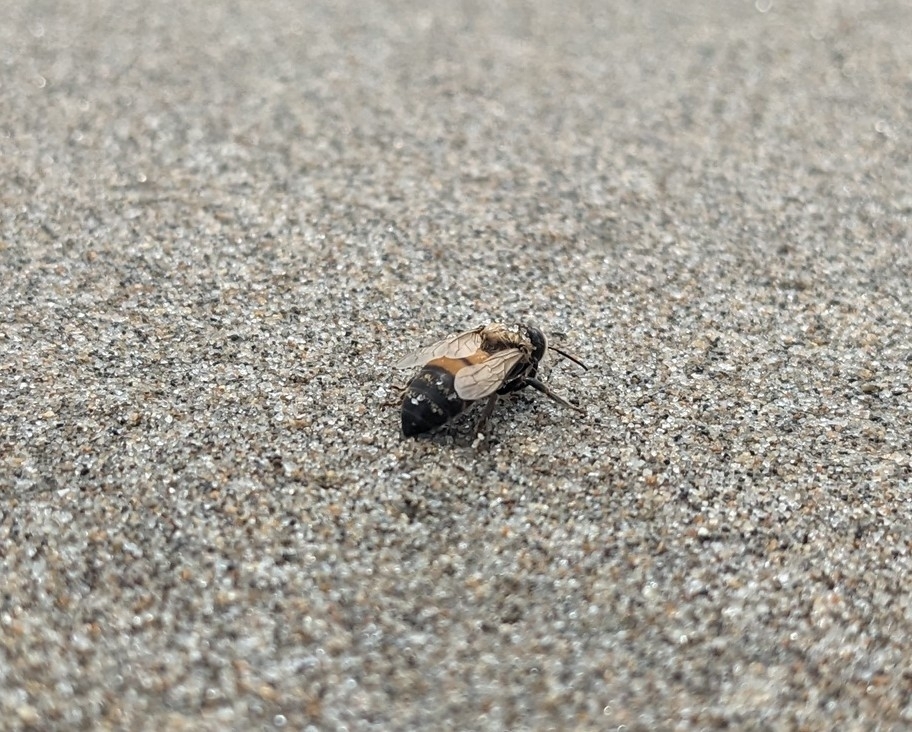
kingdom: Animalia
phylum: Arthropoda
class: Insecta
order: Hymenoptera
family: Apidae
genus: Apis
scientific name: Apis mellifera
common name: Honey bee
